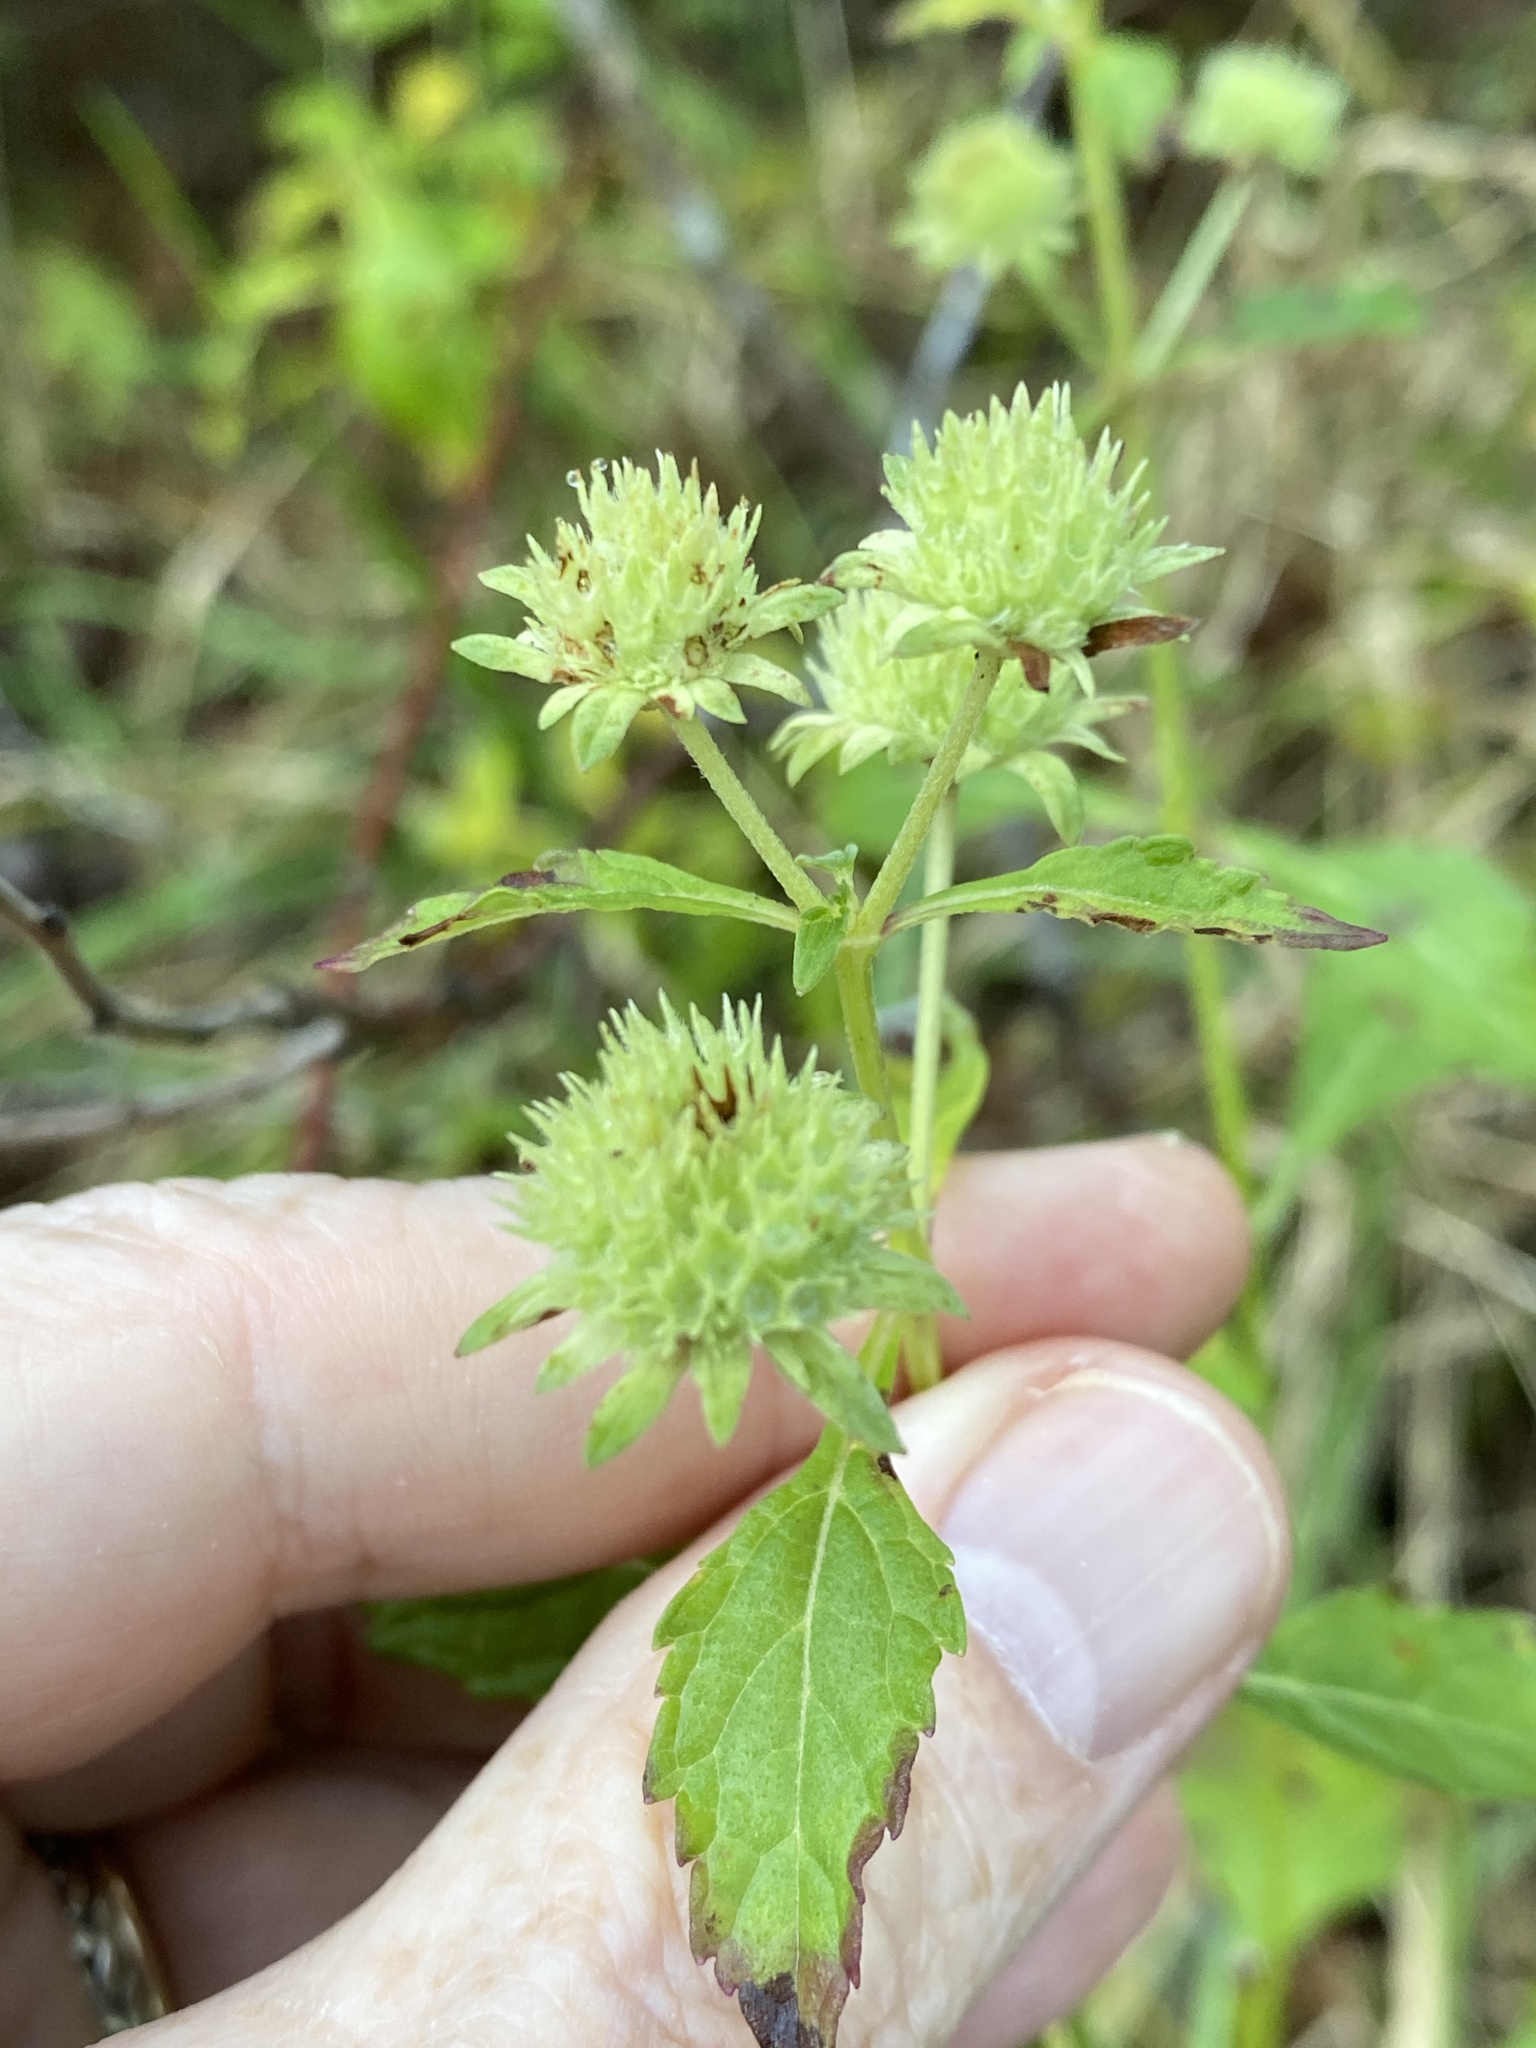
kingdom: Plantae
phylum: Tracheophyta
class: Magnoliopsida
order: Lamiales
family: Lamiaceae
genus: Hyptis
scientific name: Hyptis alata
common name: Cluster bush-mint
